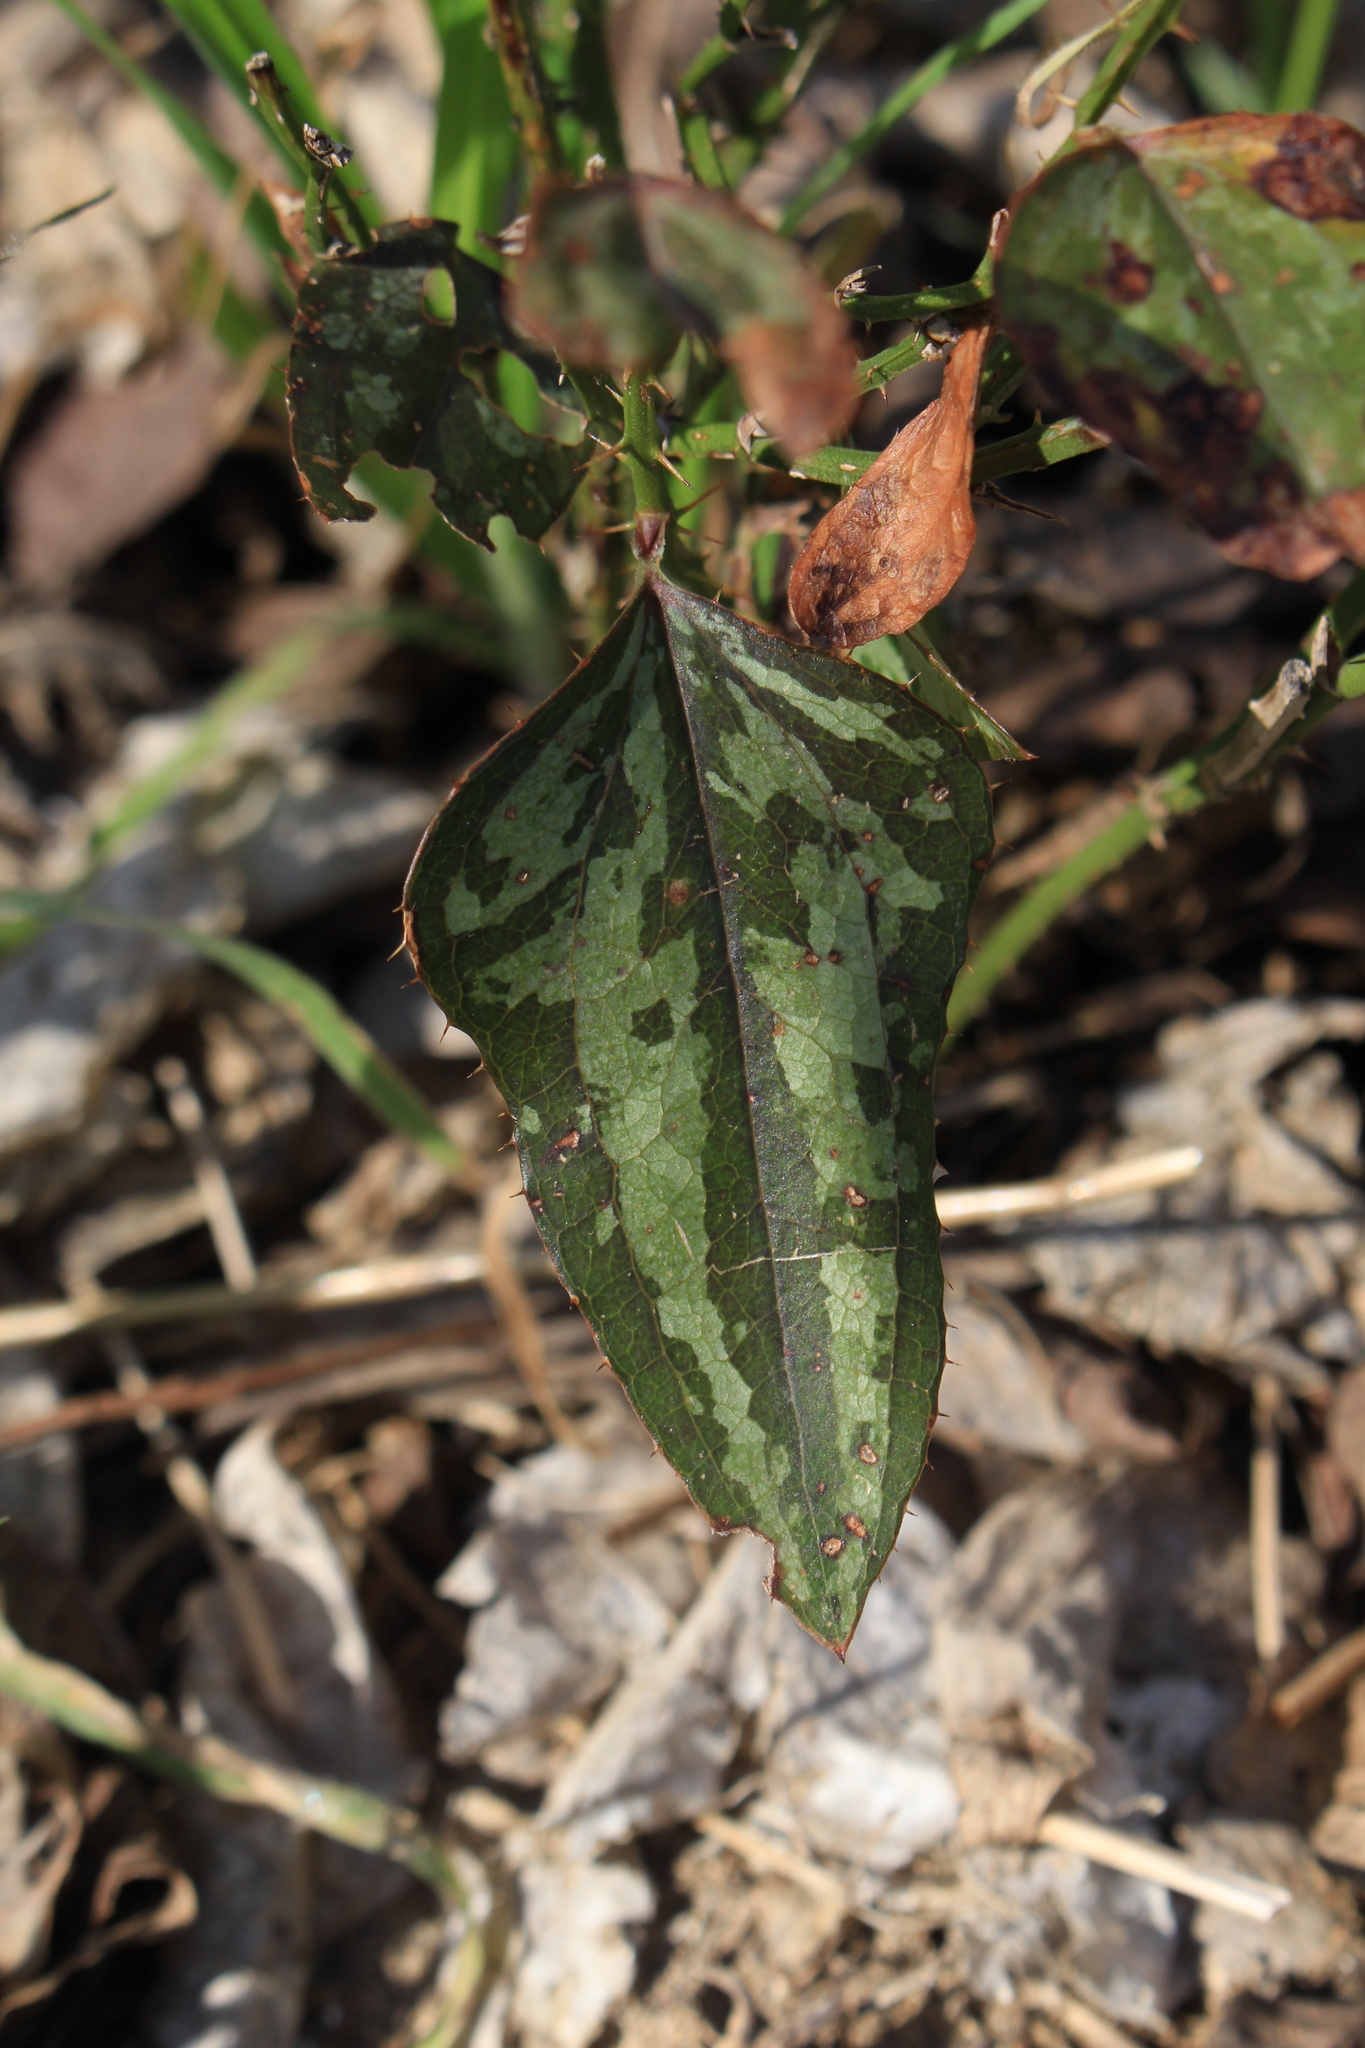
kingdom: Plantae
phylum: Tracheophyta
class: Liliopsida
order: Liliales
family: Smilacaceae
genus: Smilax
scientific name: Smilax bona-nox
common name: Catbrier
